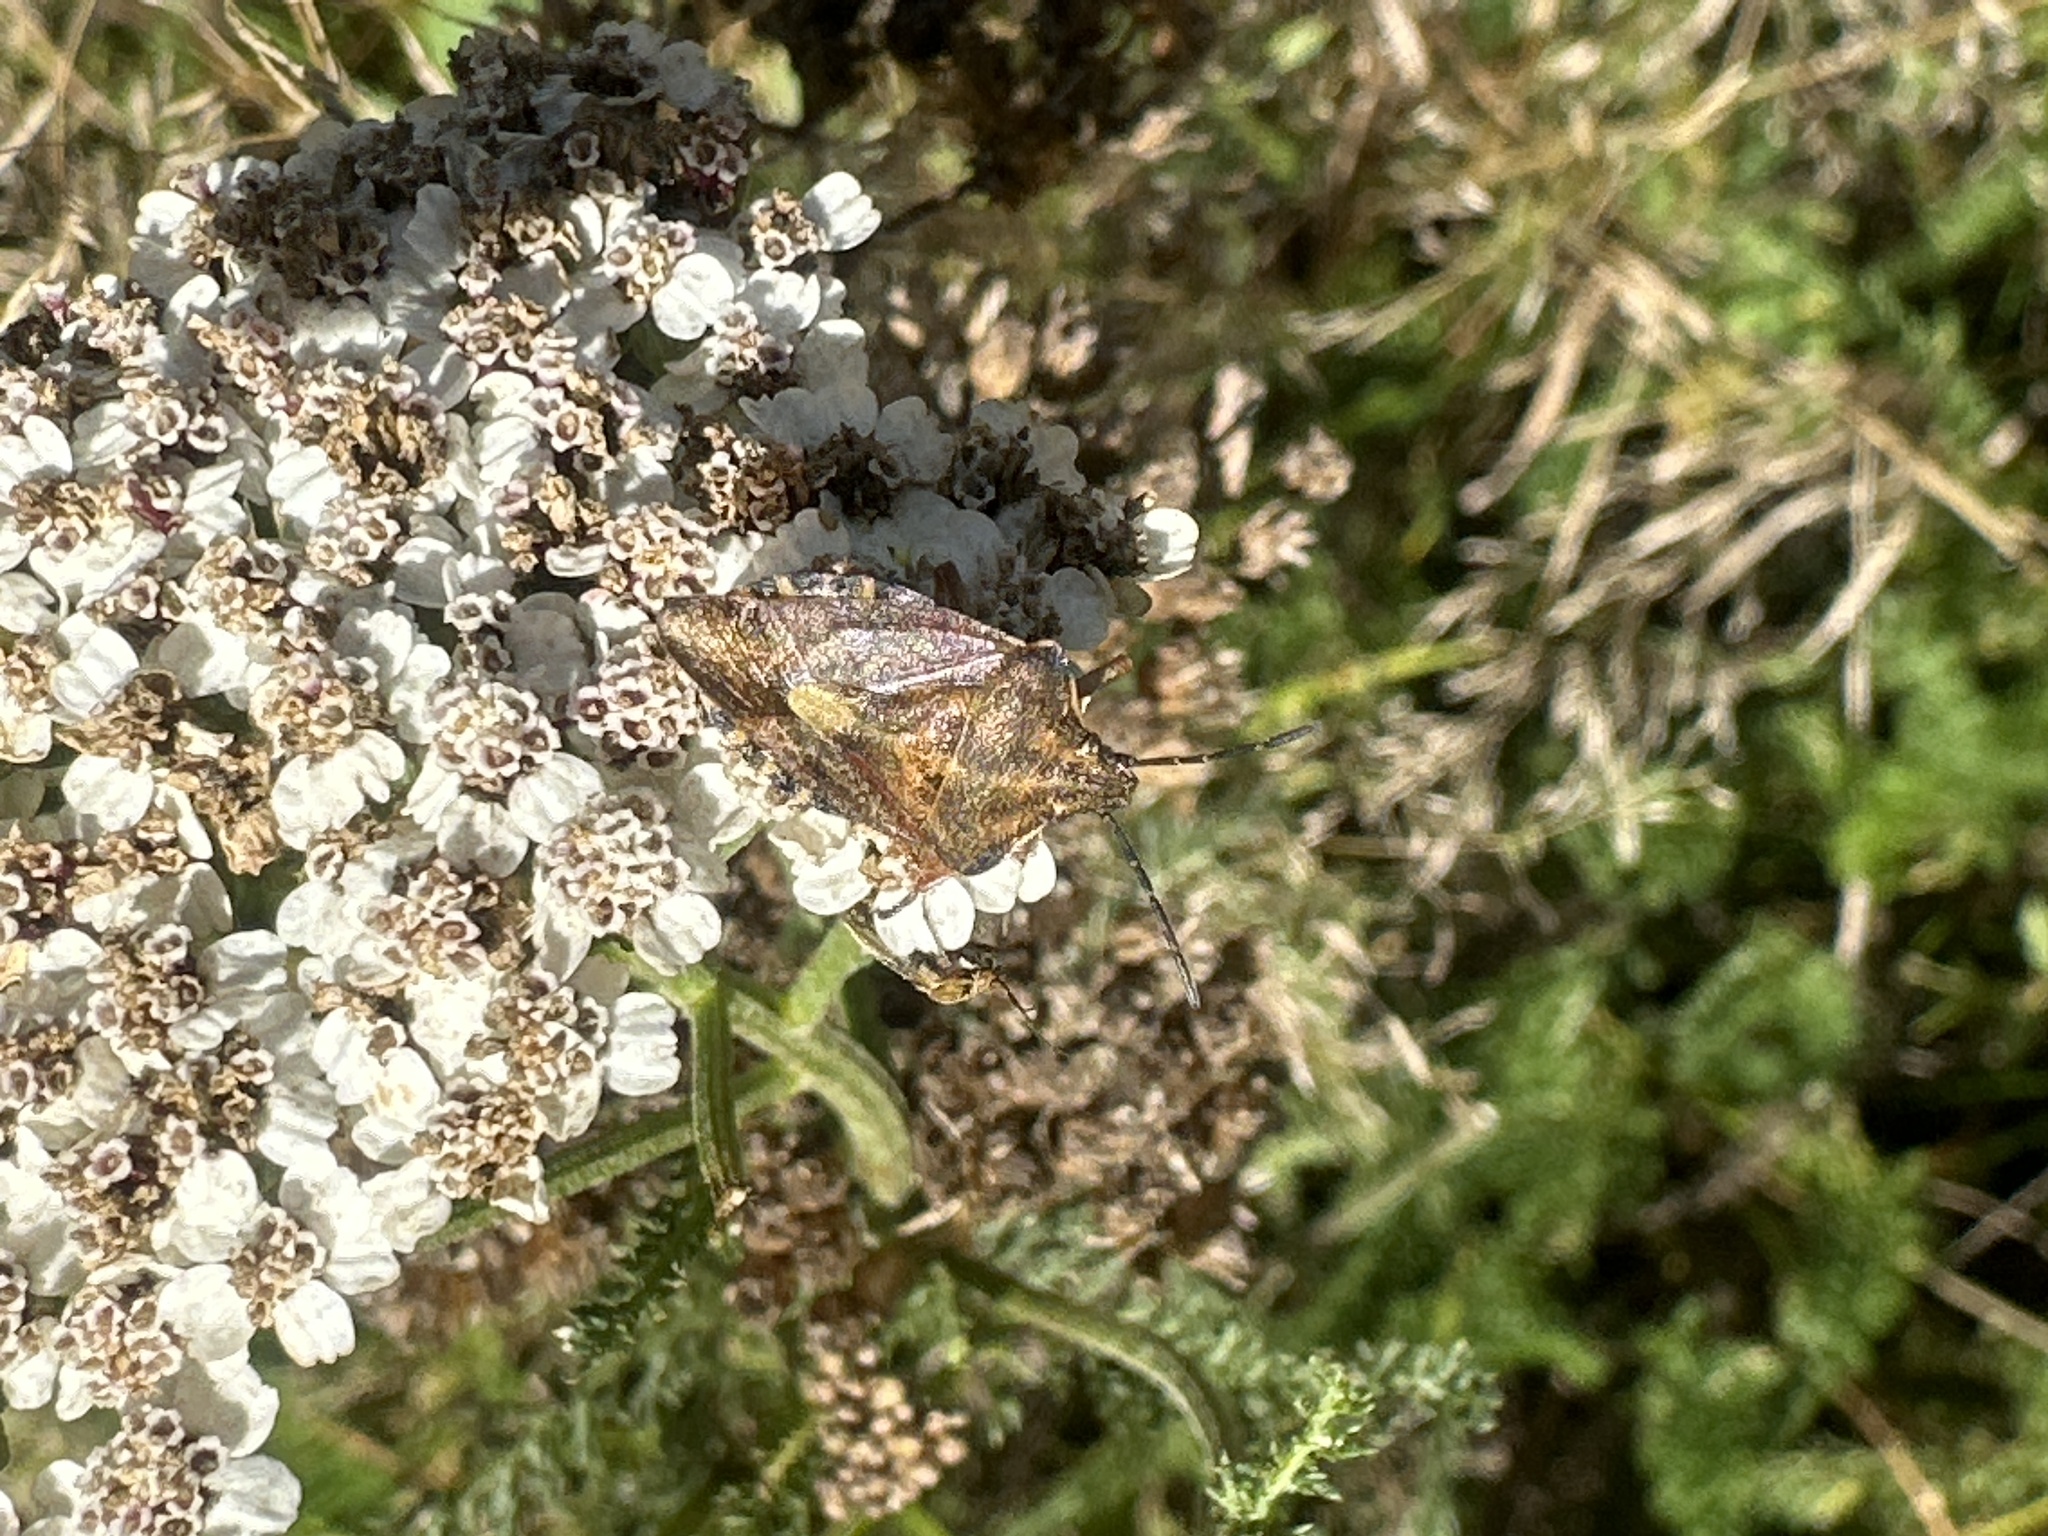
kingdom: Animalia
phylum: Arthropoda
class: Insecta
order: Hemiptera
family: Pentatomidae
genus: Carpocoris
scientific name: Carpocoris purpureipennis
